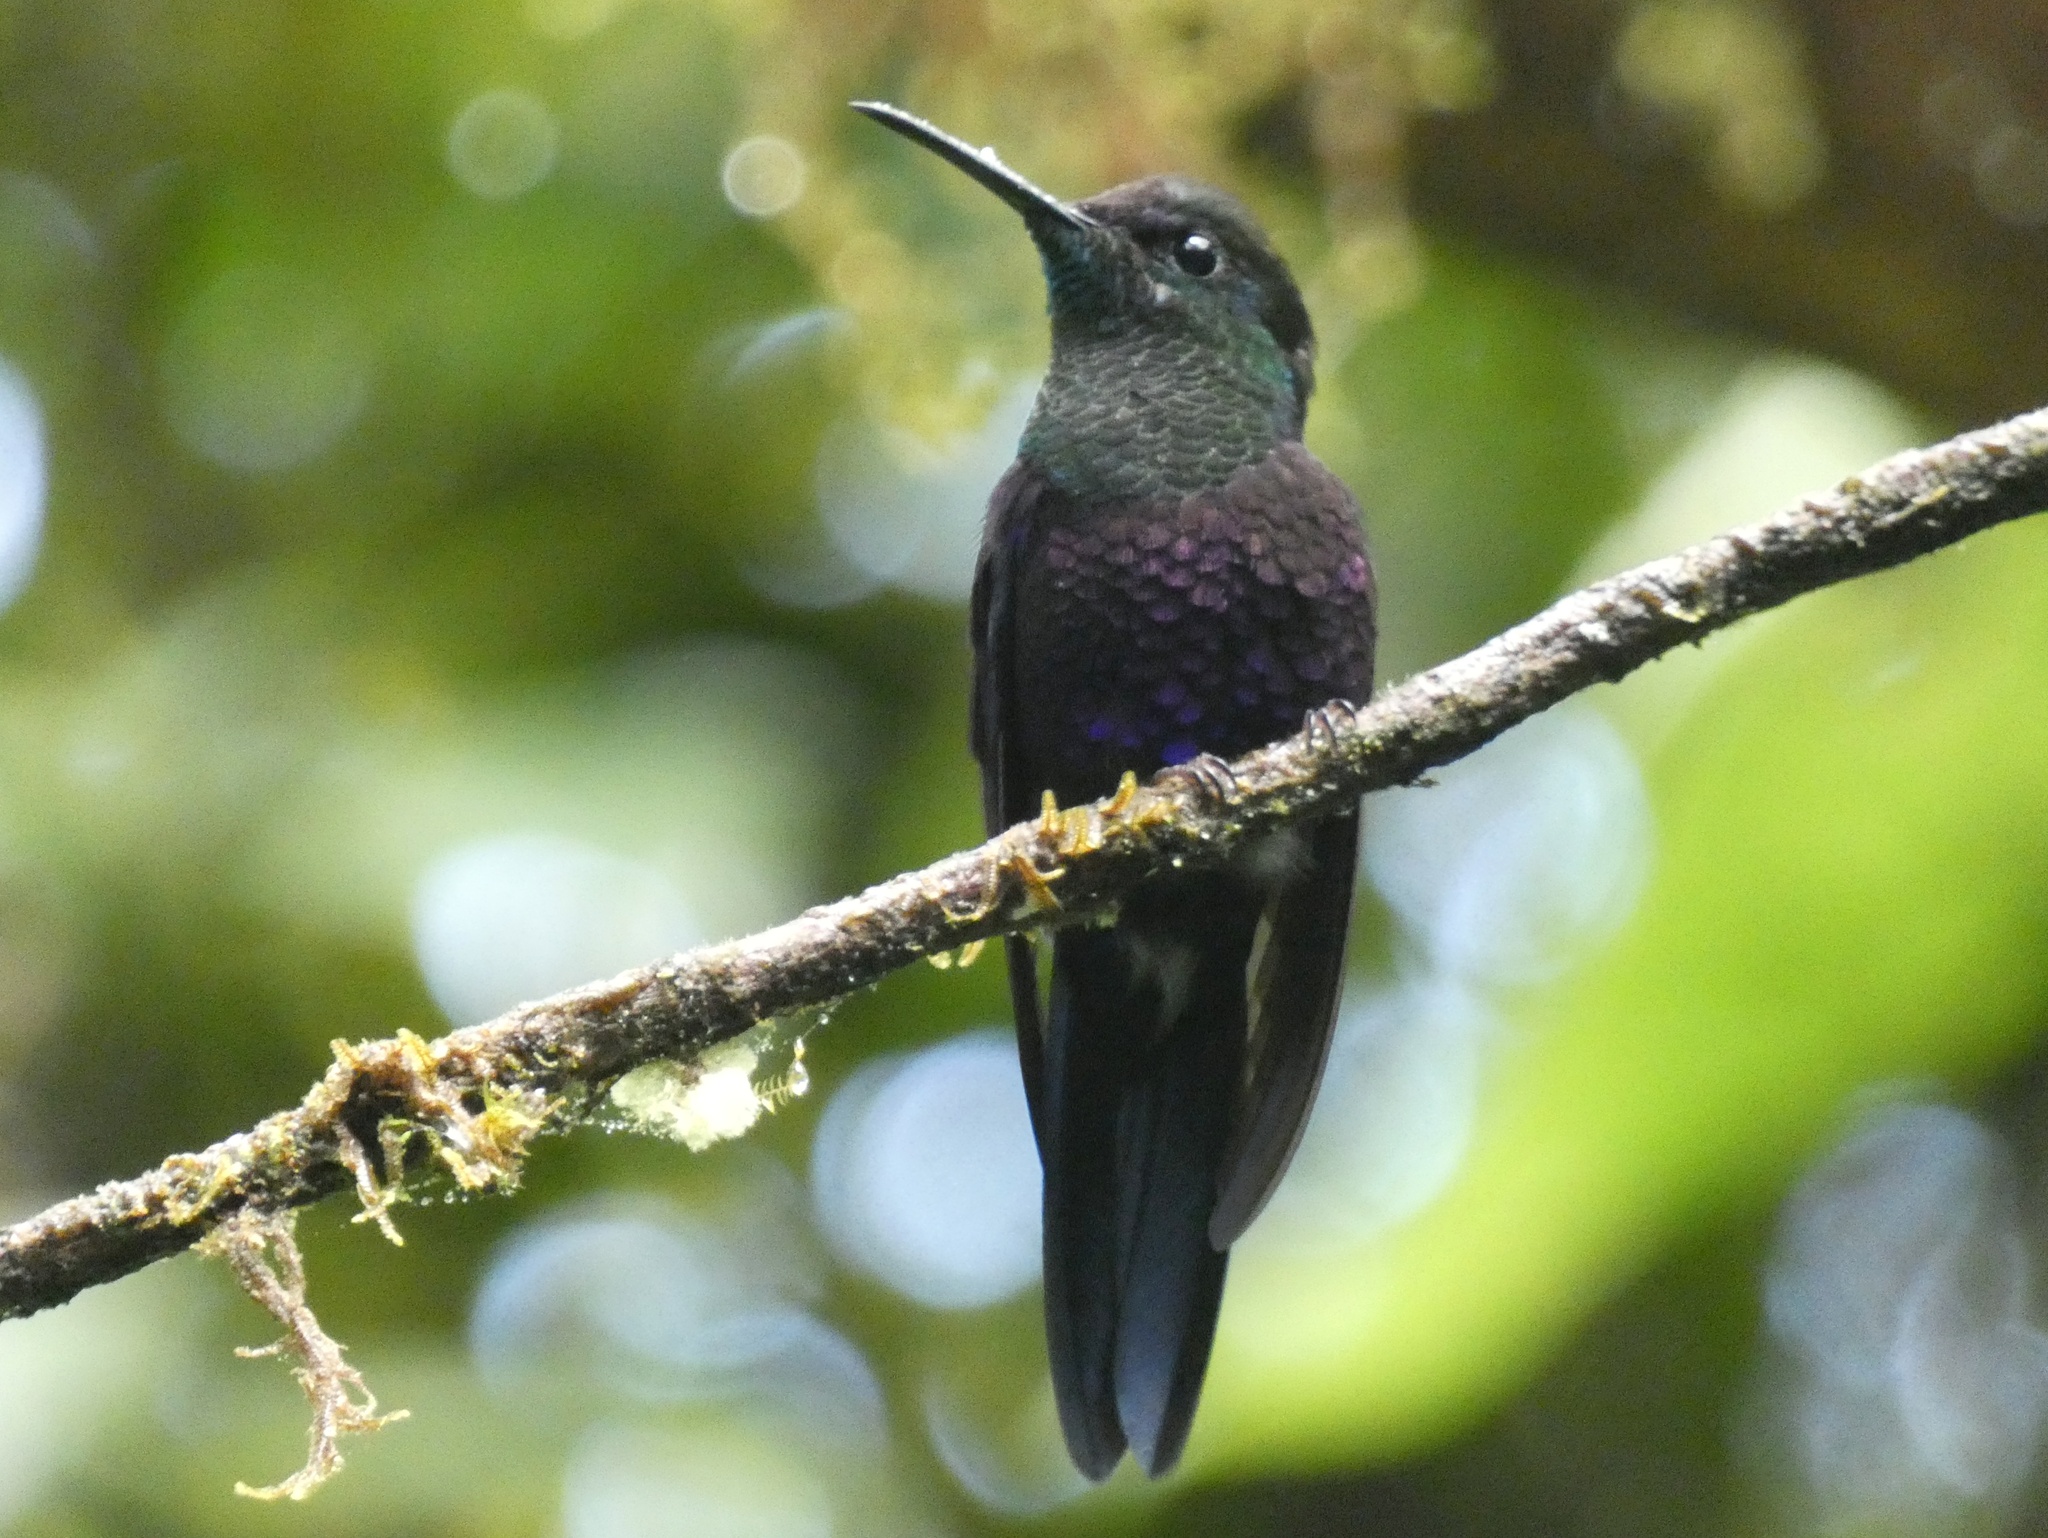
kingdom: Animalia
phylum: Chordata
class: Aves
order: Apodiformes
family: Trochilidae
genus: Thalurania
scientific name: Thalurania colombica
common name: Crowned woodnymph
